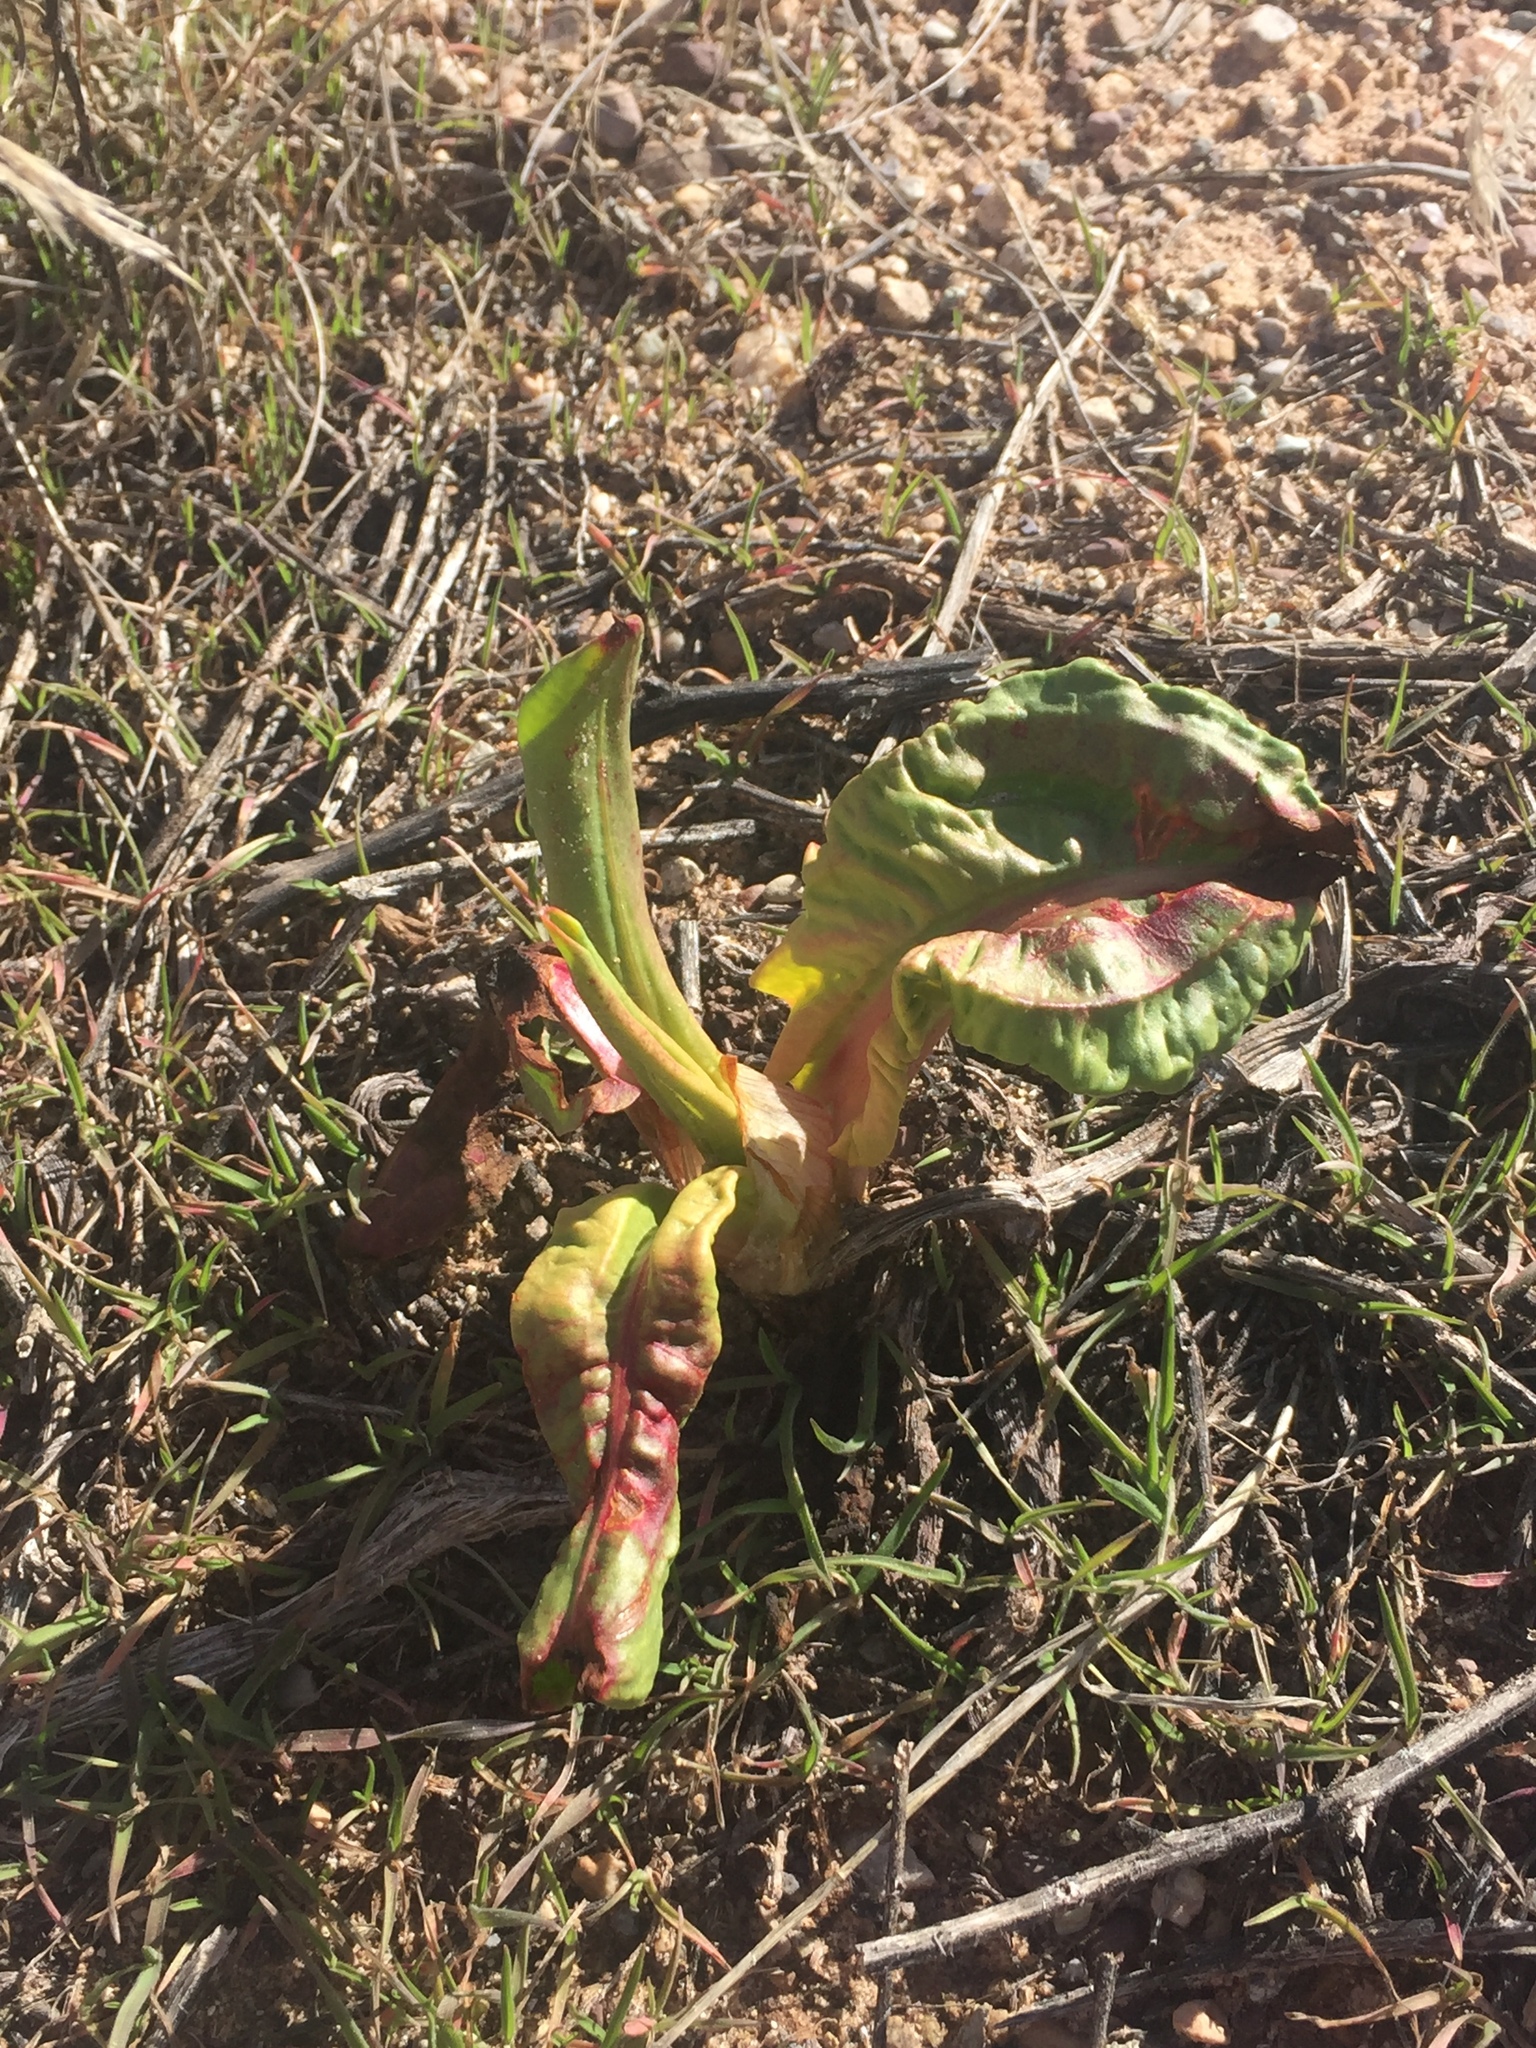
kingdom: Plantae
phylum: Tracheophyta
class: Magnoliopsida
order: Caryophyllales
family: Polygonaceae
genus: Rumex
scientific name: Rumex hymenosepalus
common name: Ganagra
